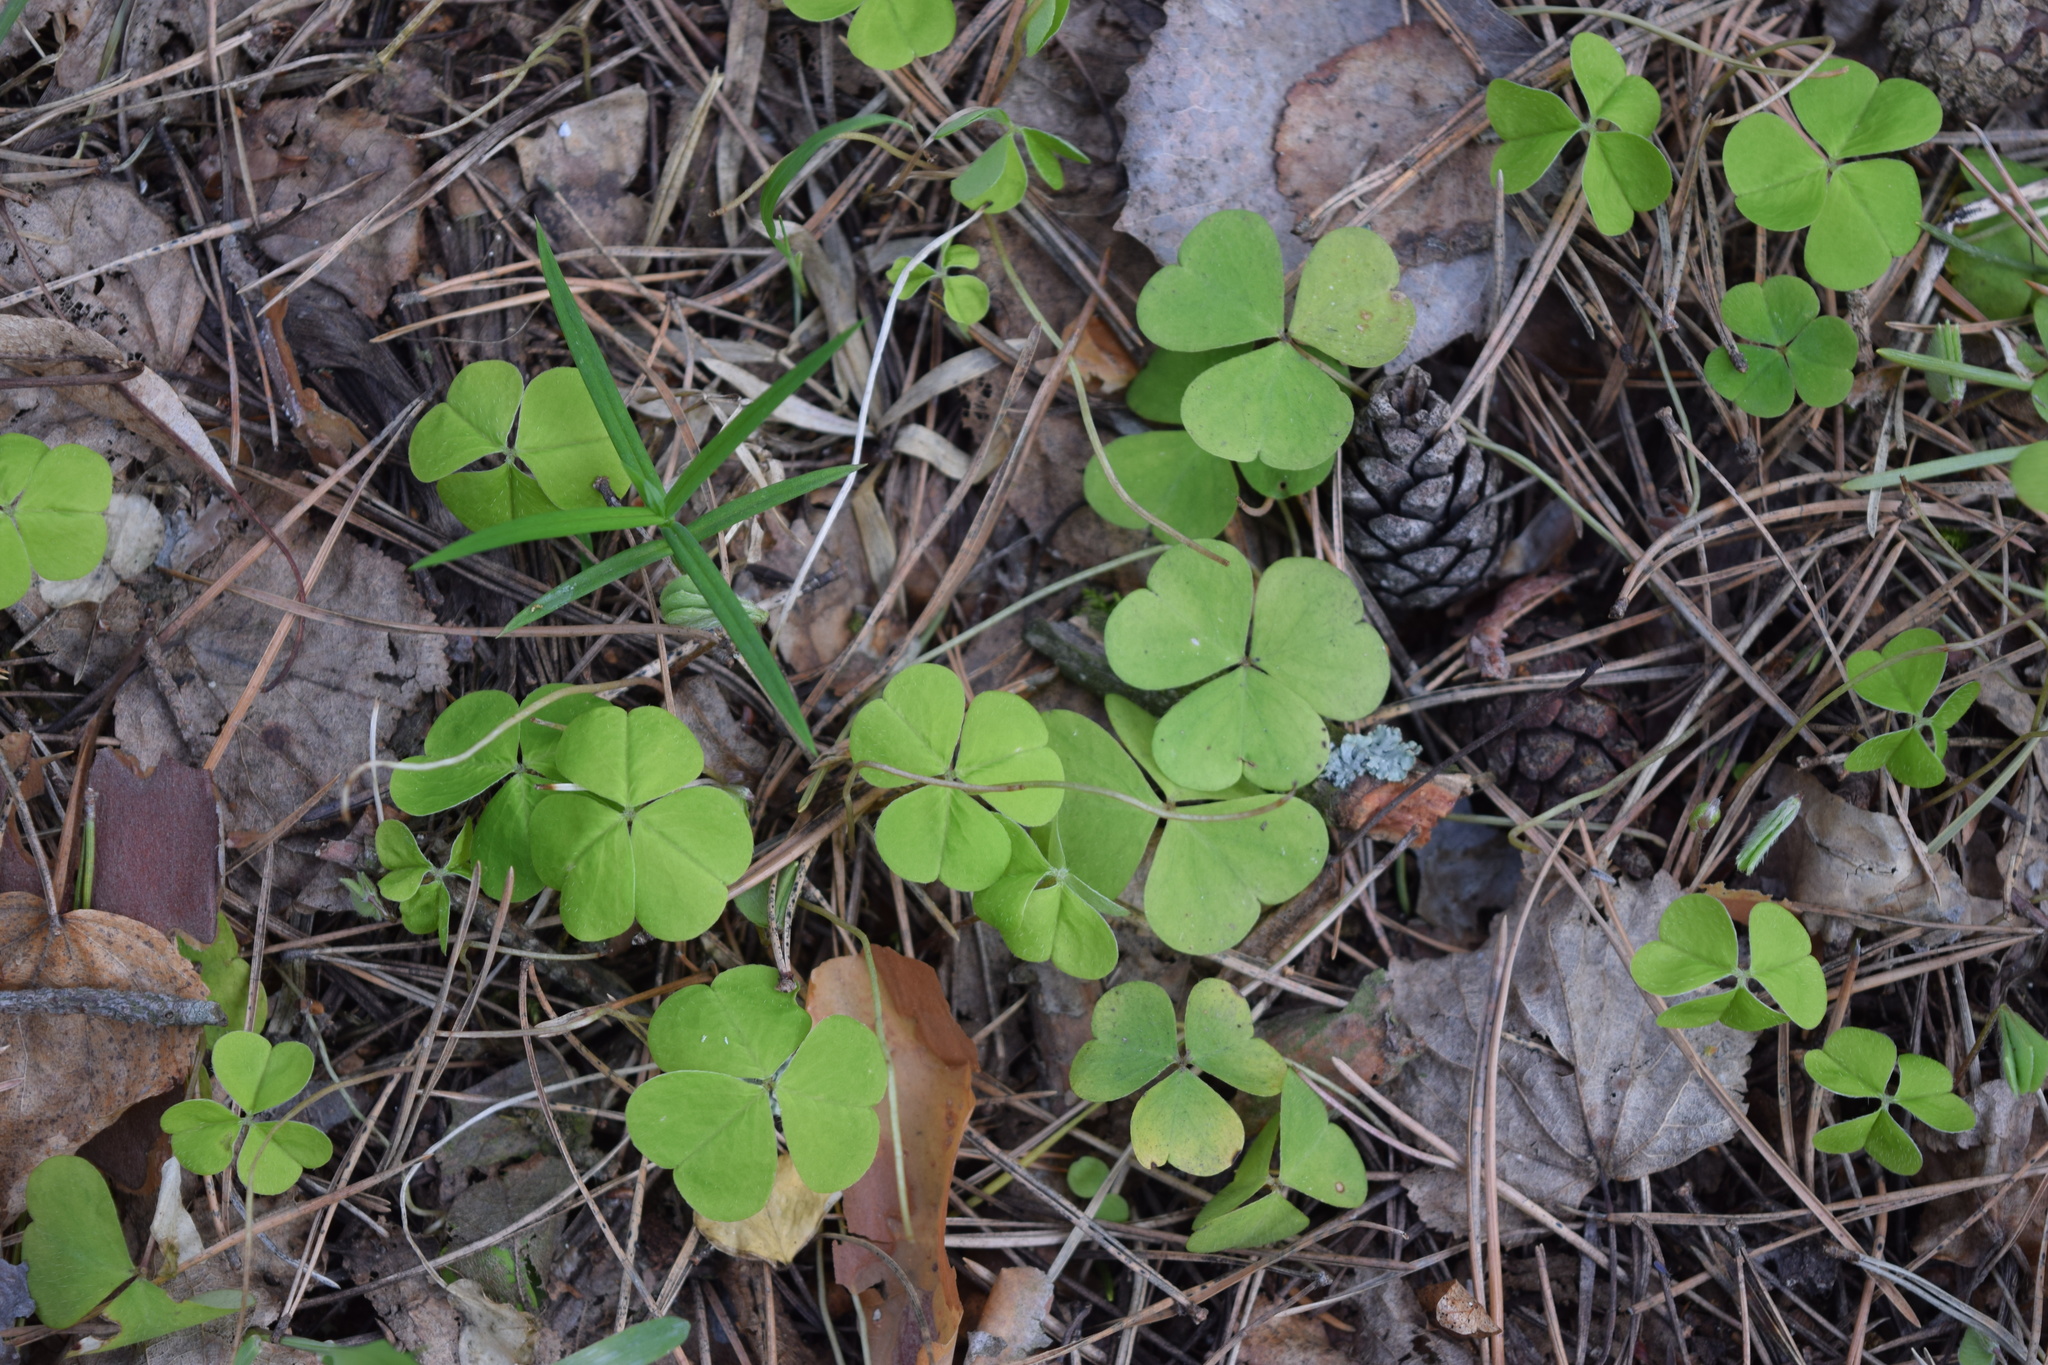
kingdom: Plantae
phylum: Tracheophyta
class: Magnoliopsida
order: Oxalidales
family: Oxalidaceae
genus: Oxalis
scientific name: Oxalis acetosella
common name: Wood-sorrel
